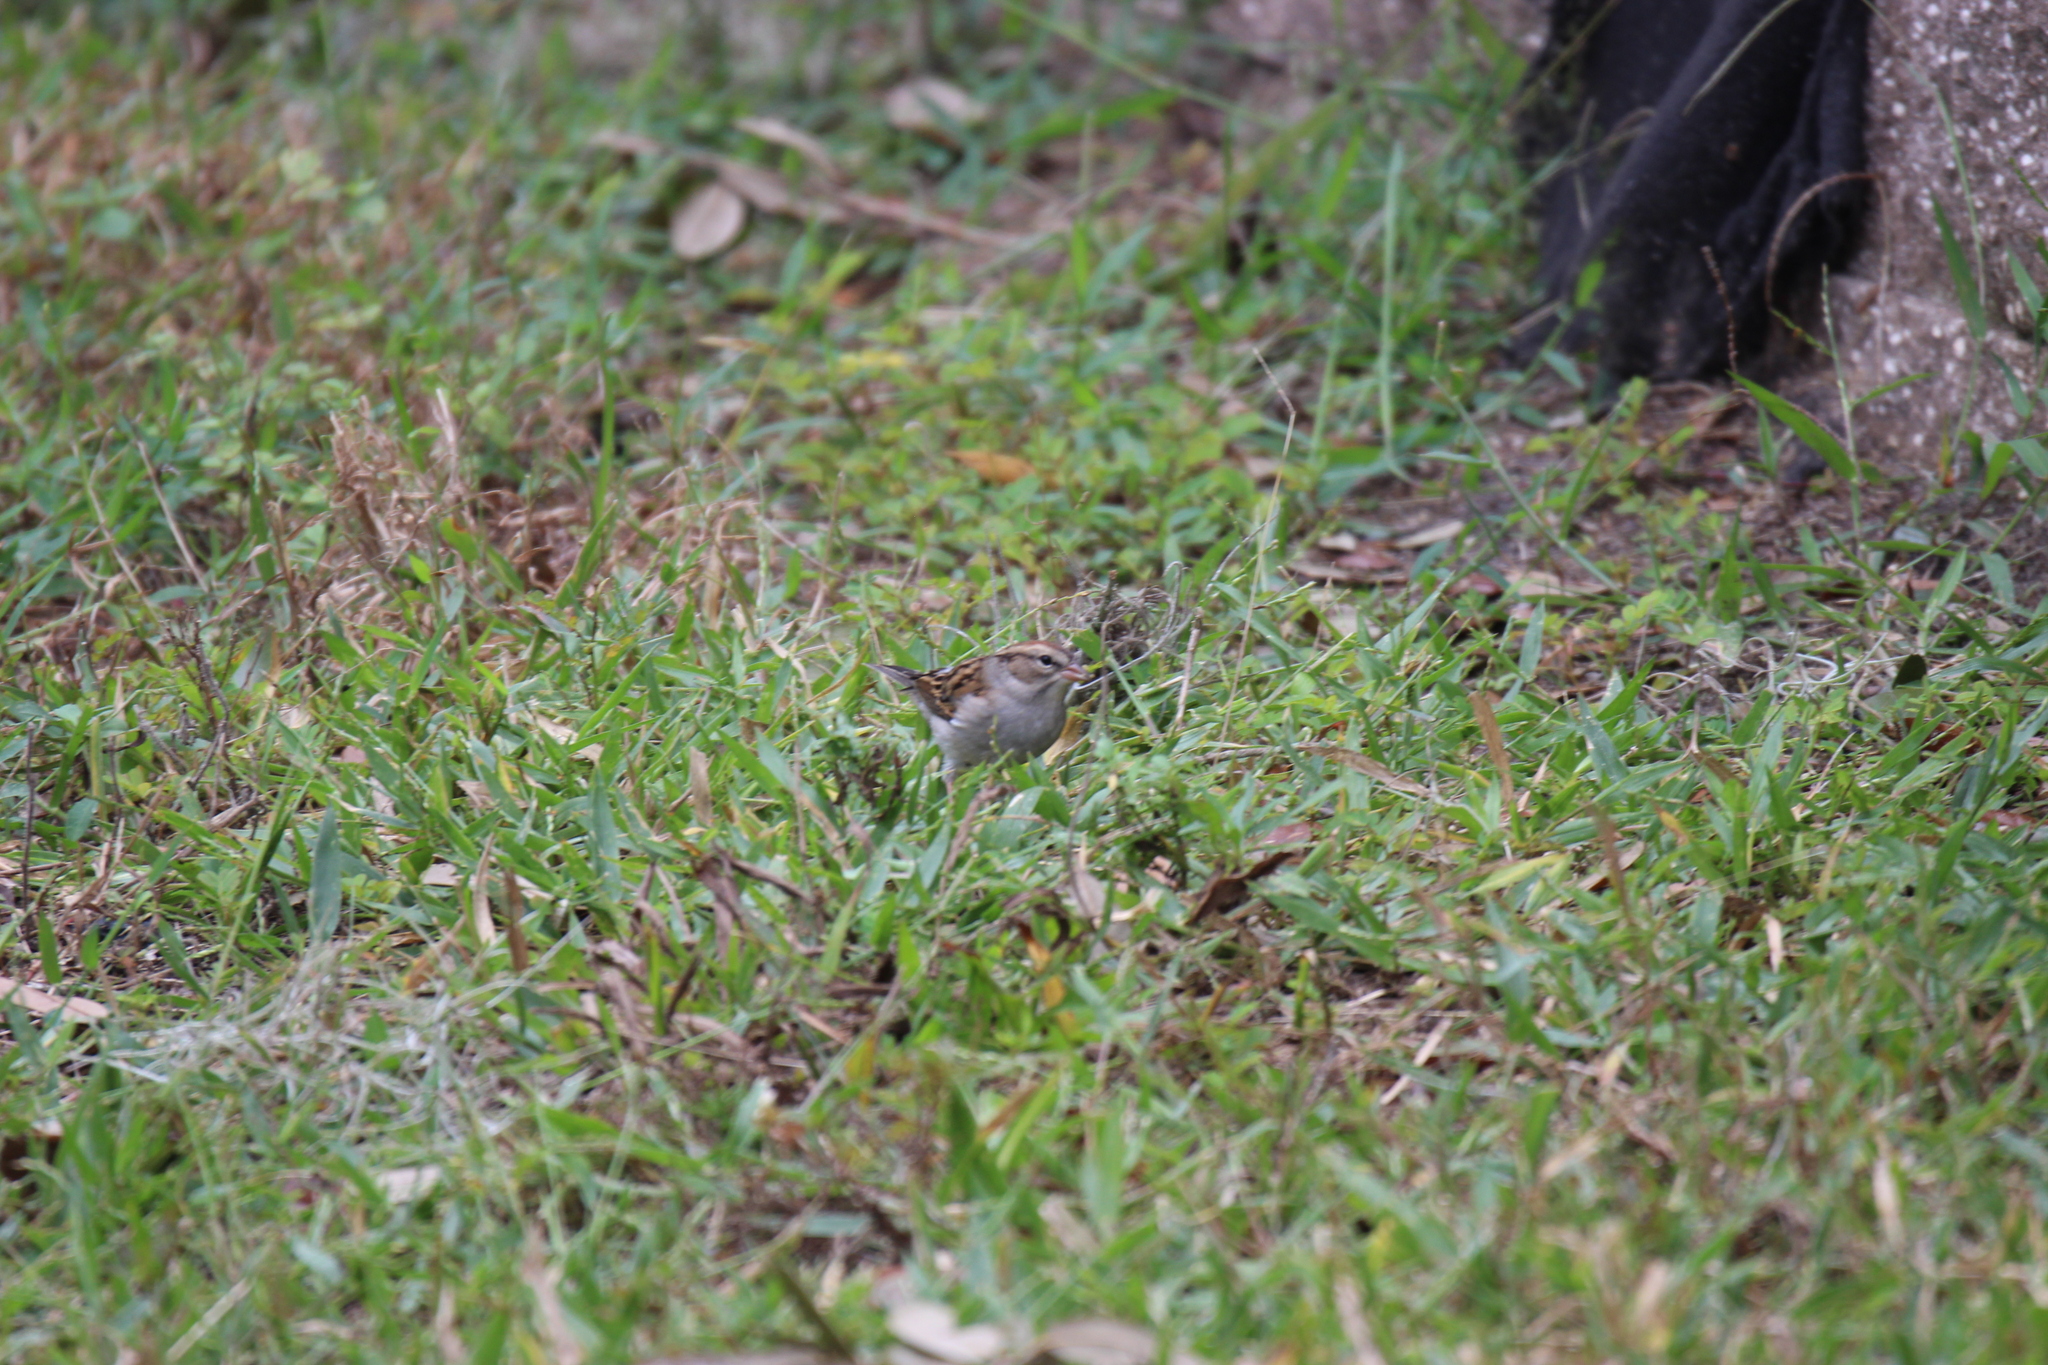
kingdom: Animalia
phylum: Chordata
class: Aves
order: Passeriformes
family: Passerellidae
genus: Spizella
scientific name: Spizella passerina
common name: Chipping sparrow
